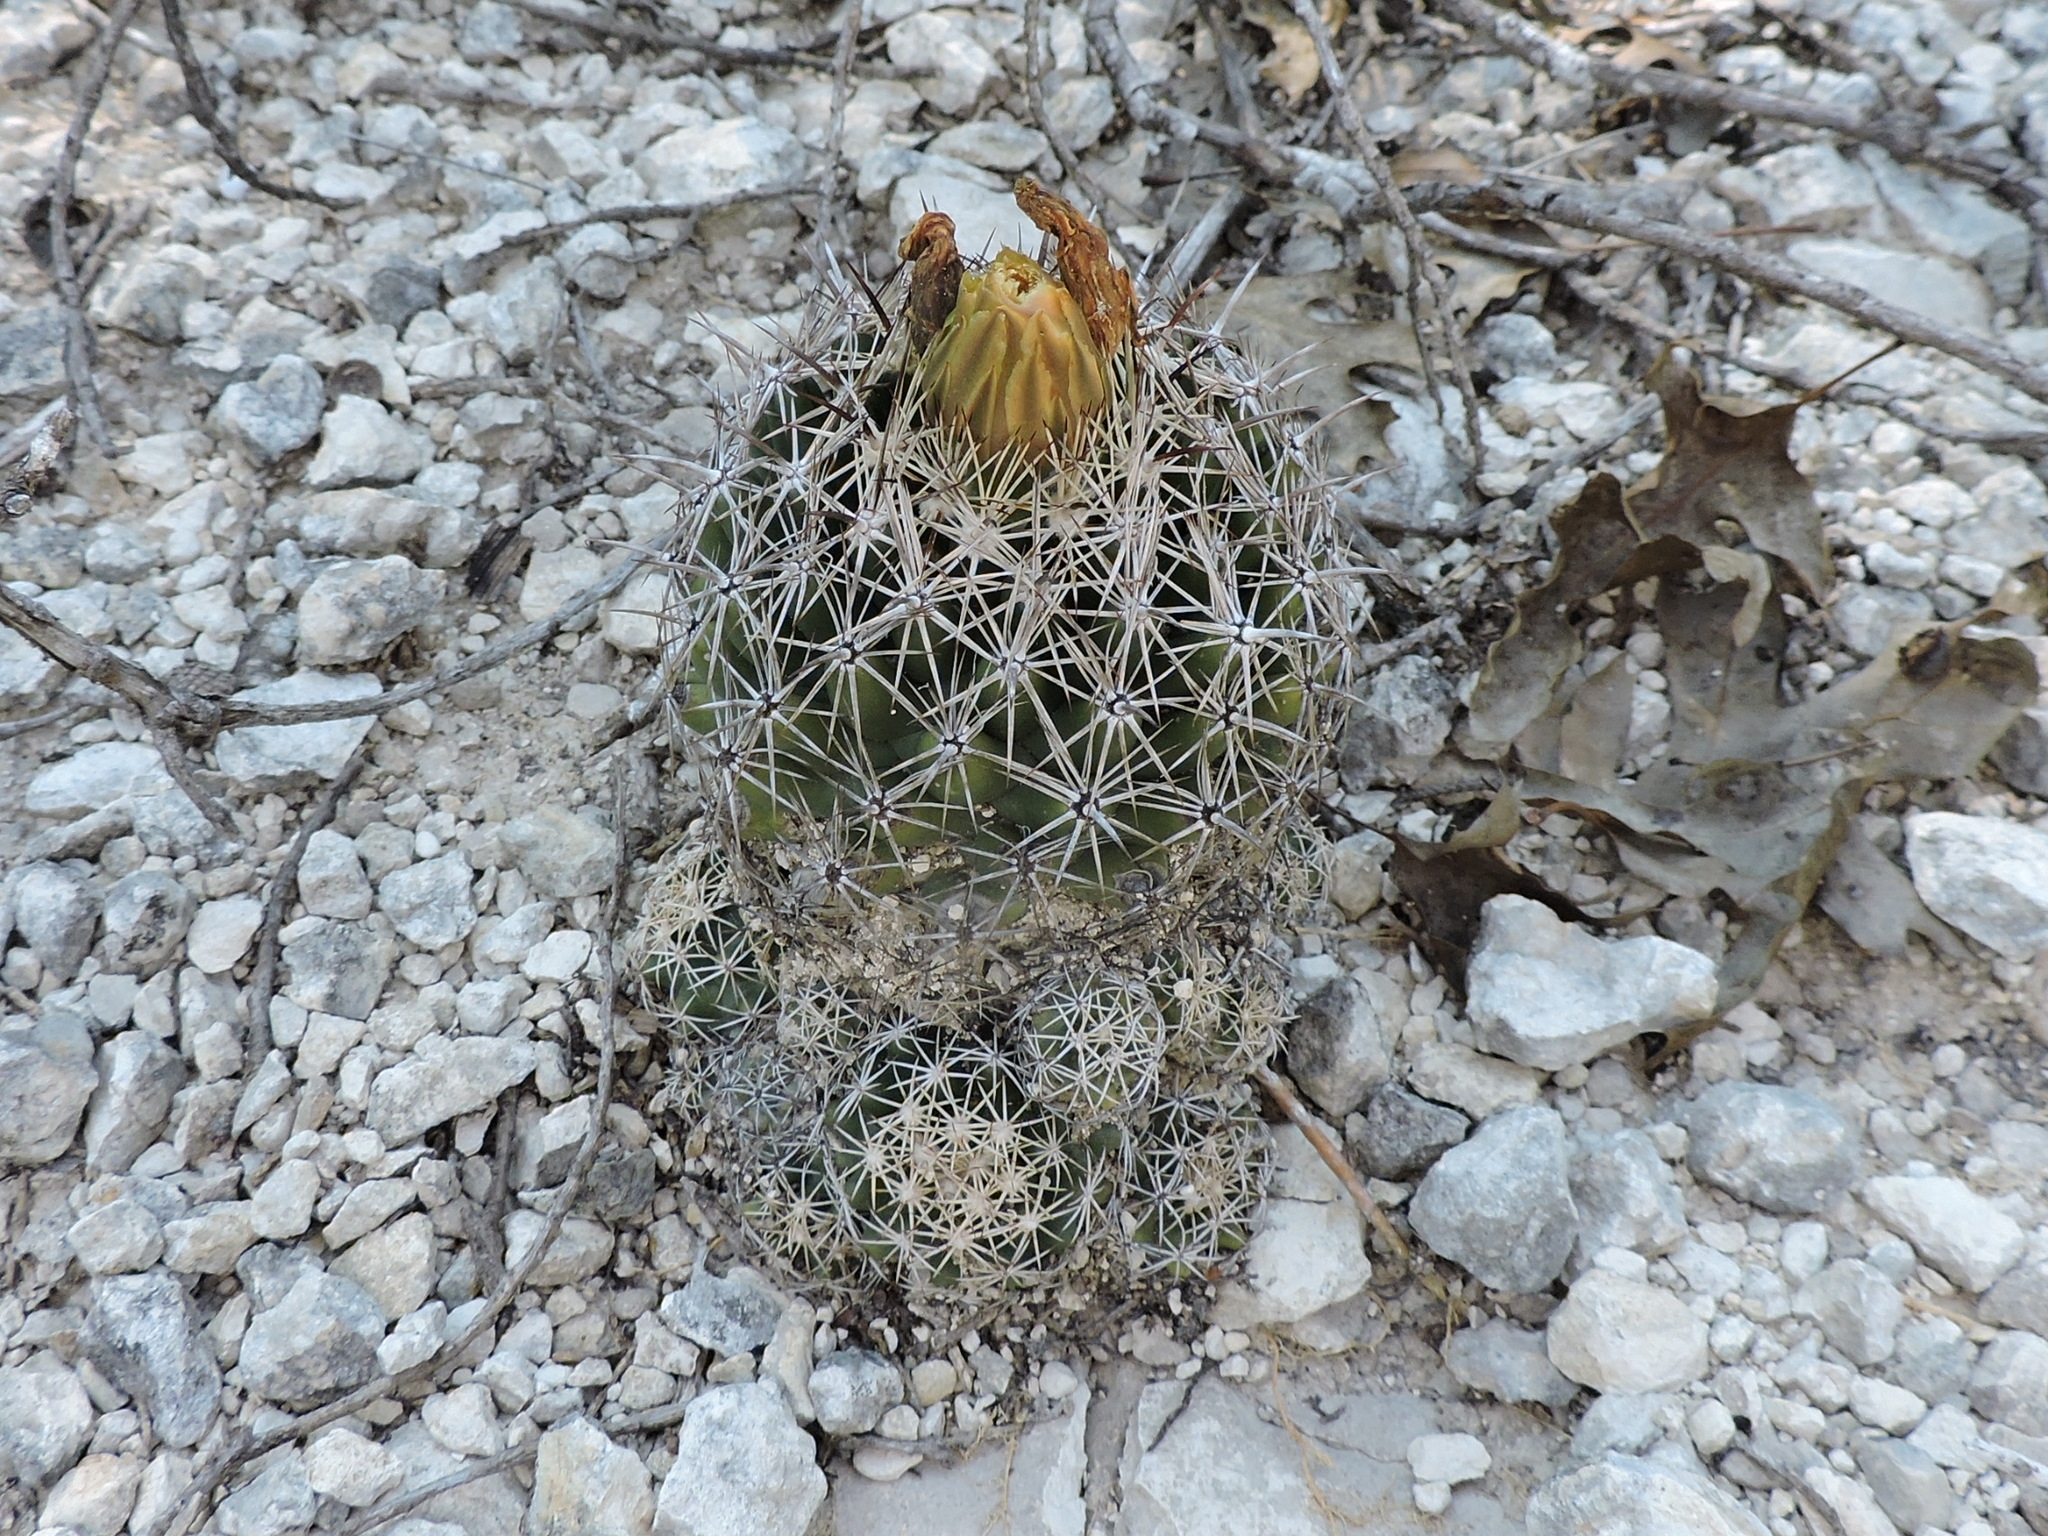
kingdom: Plantae
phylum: Tracheophyta
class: Magnoliopsida
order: Caryophyllales
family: Cactaceae
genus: Coryphantha
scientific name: Coryphantha sulcata
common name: Finger cactus
